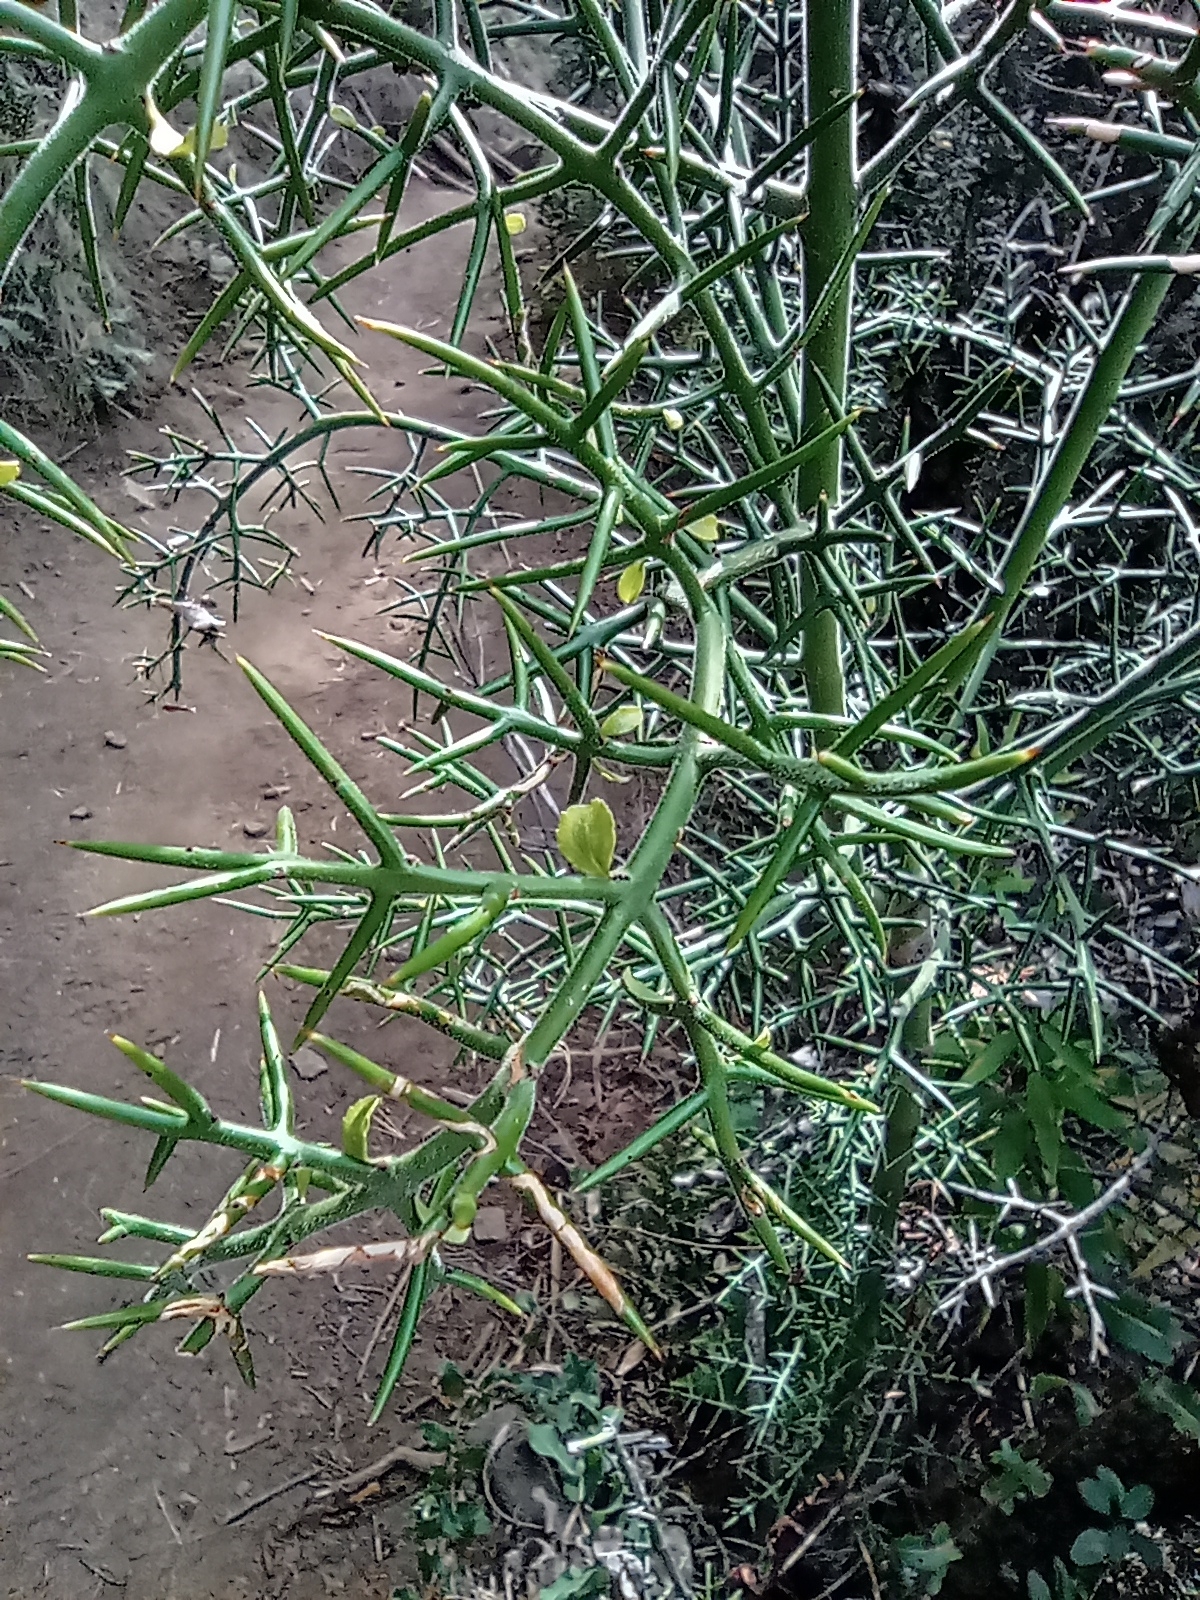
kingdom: Plantae
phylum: Tracheophyta
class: Magnoliopsida
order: Rosales
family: Rhamnaceae
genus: Colletia
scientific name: Colletia hystrix
